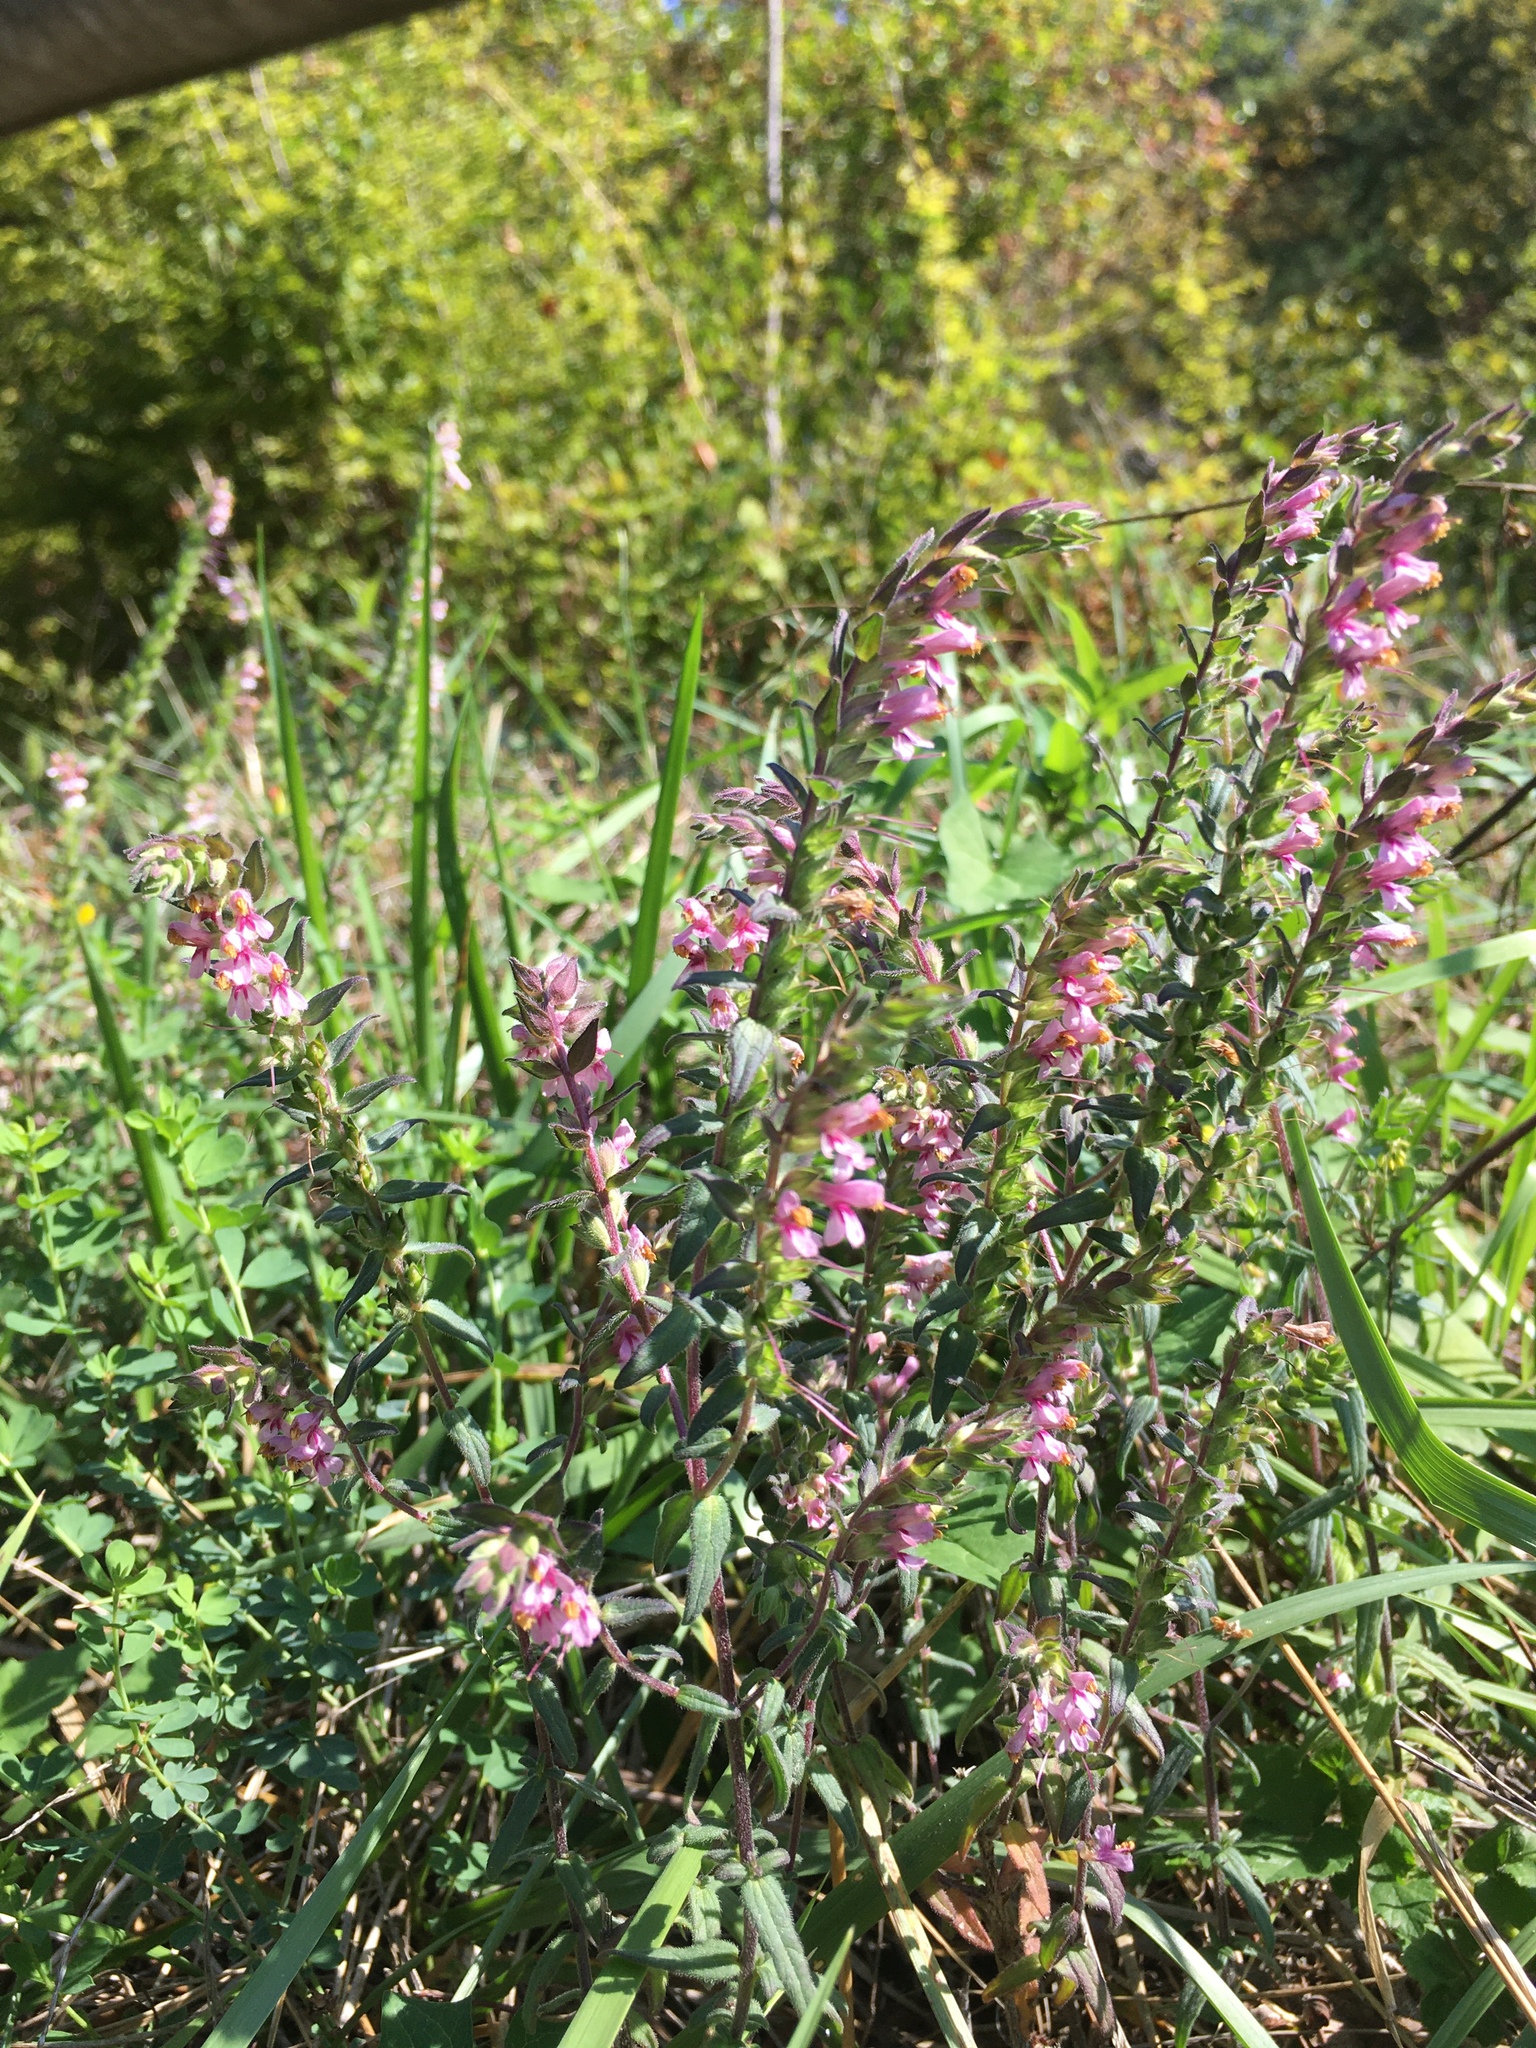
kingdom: Plantae
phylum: Tracheophyta
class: Magnoliopsida
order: Lamiales
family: Orobanchaceae
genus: Odontites
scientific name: Odontites vulgaris
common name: Broomrape
